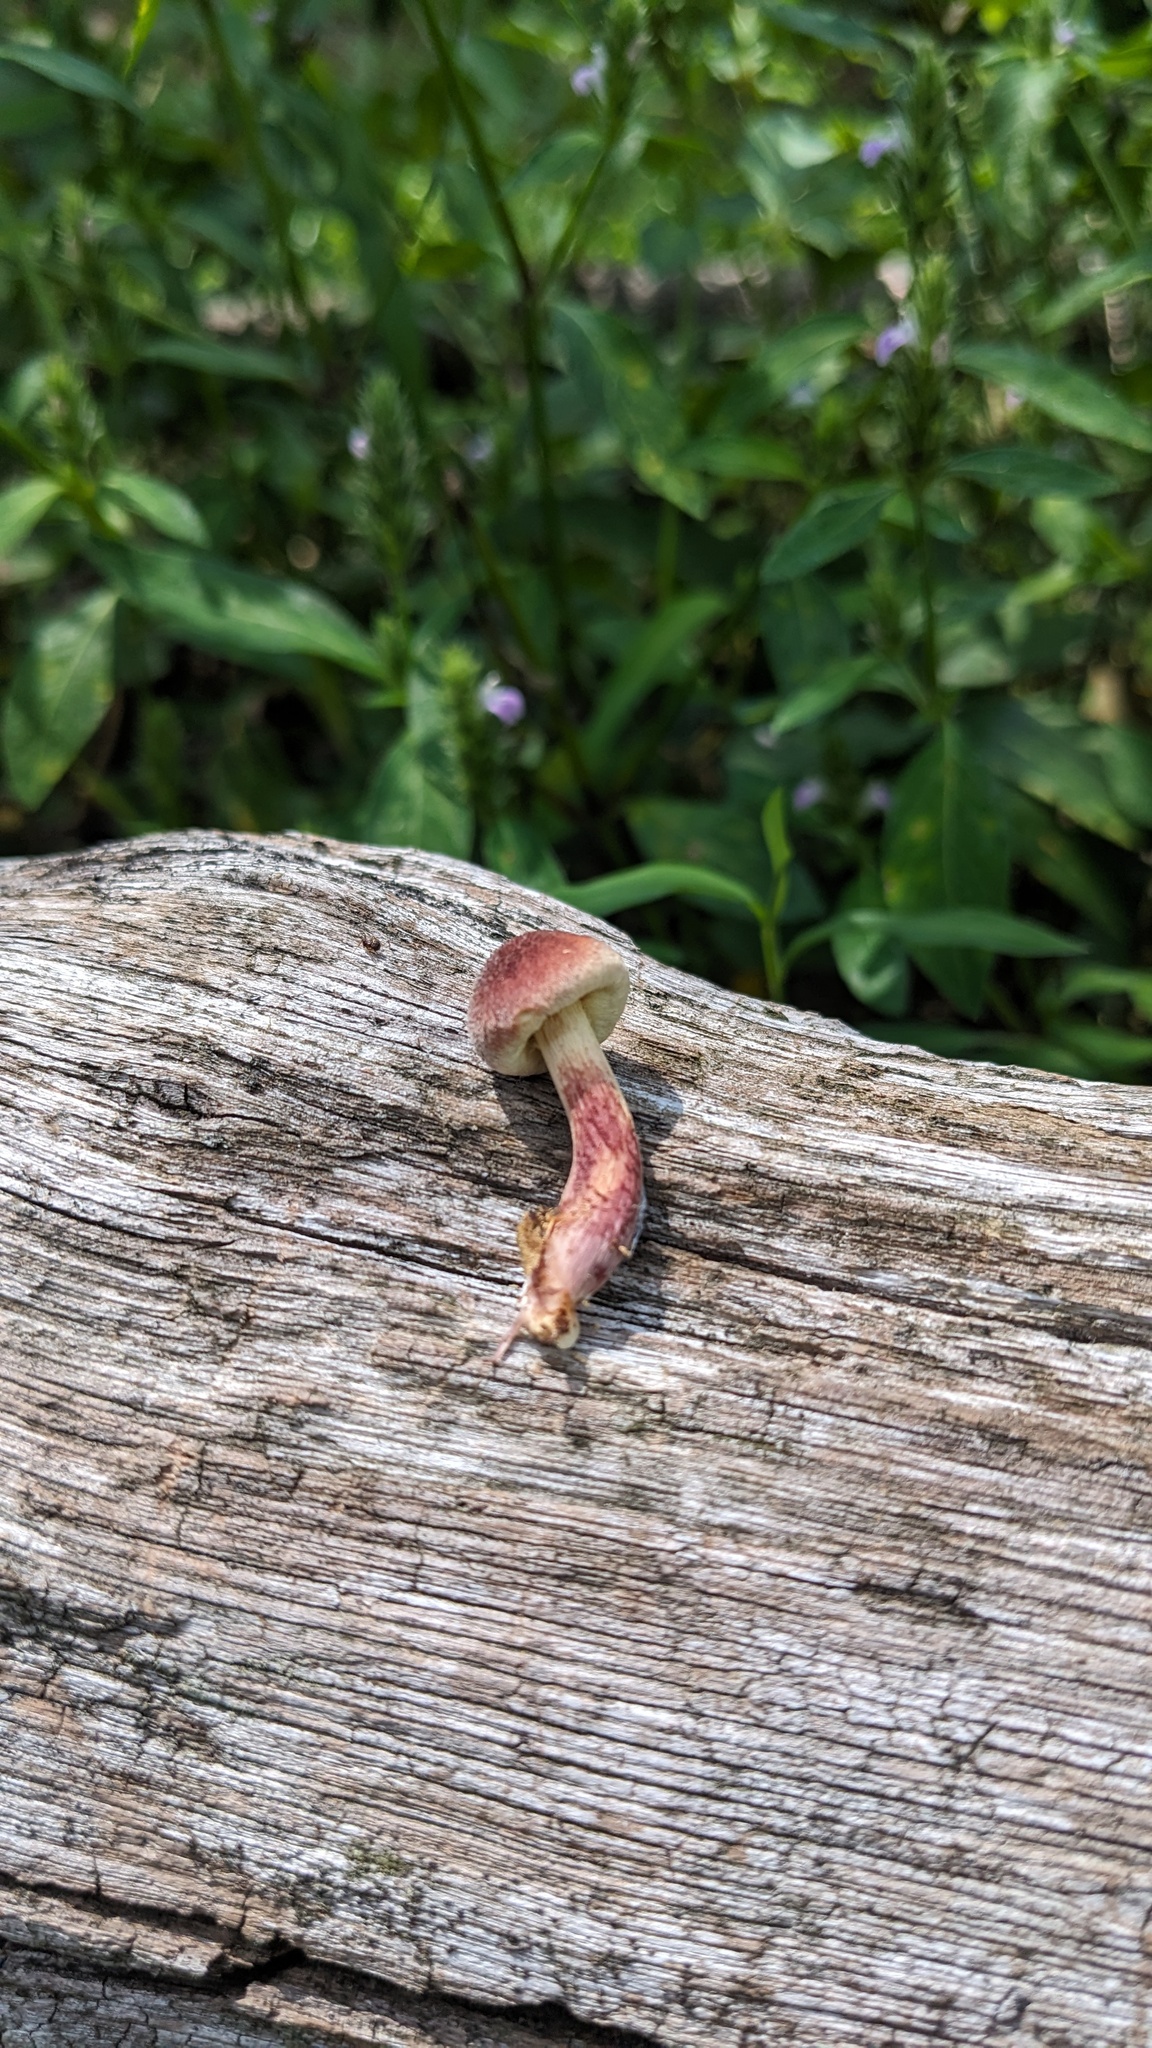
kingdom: Fungi
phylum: Basidiomycota
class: Agaricomycetes
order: Agaricales
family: Hymenogastraceae
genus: Gymnopilus
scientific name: Gymnopilus luteofolius
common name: Yellow-gilled gymnopilus
